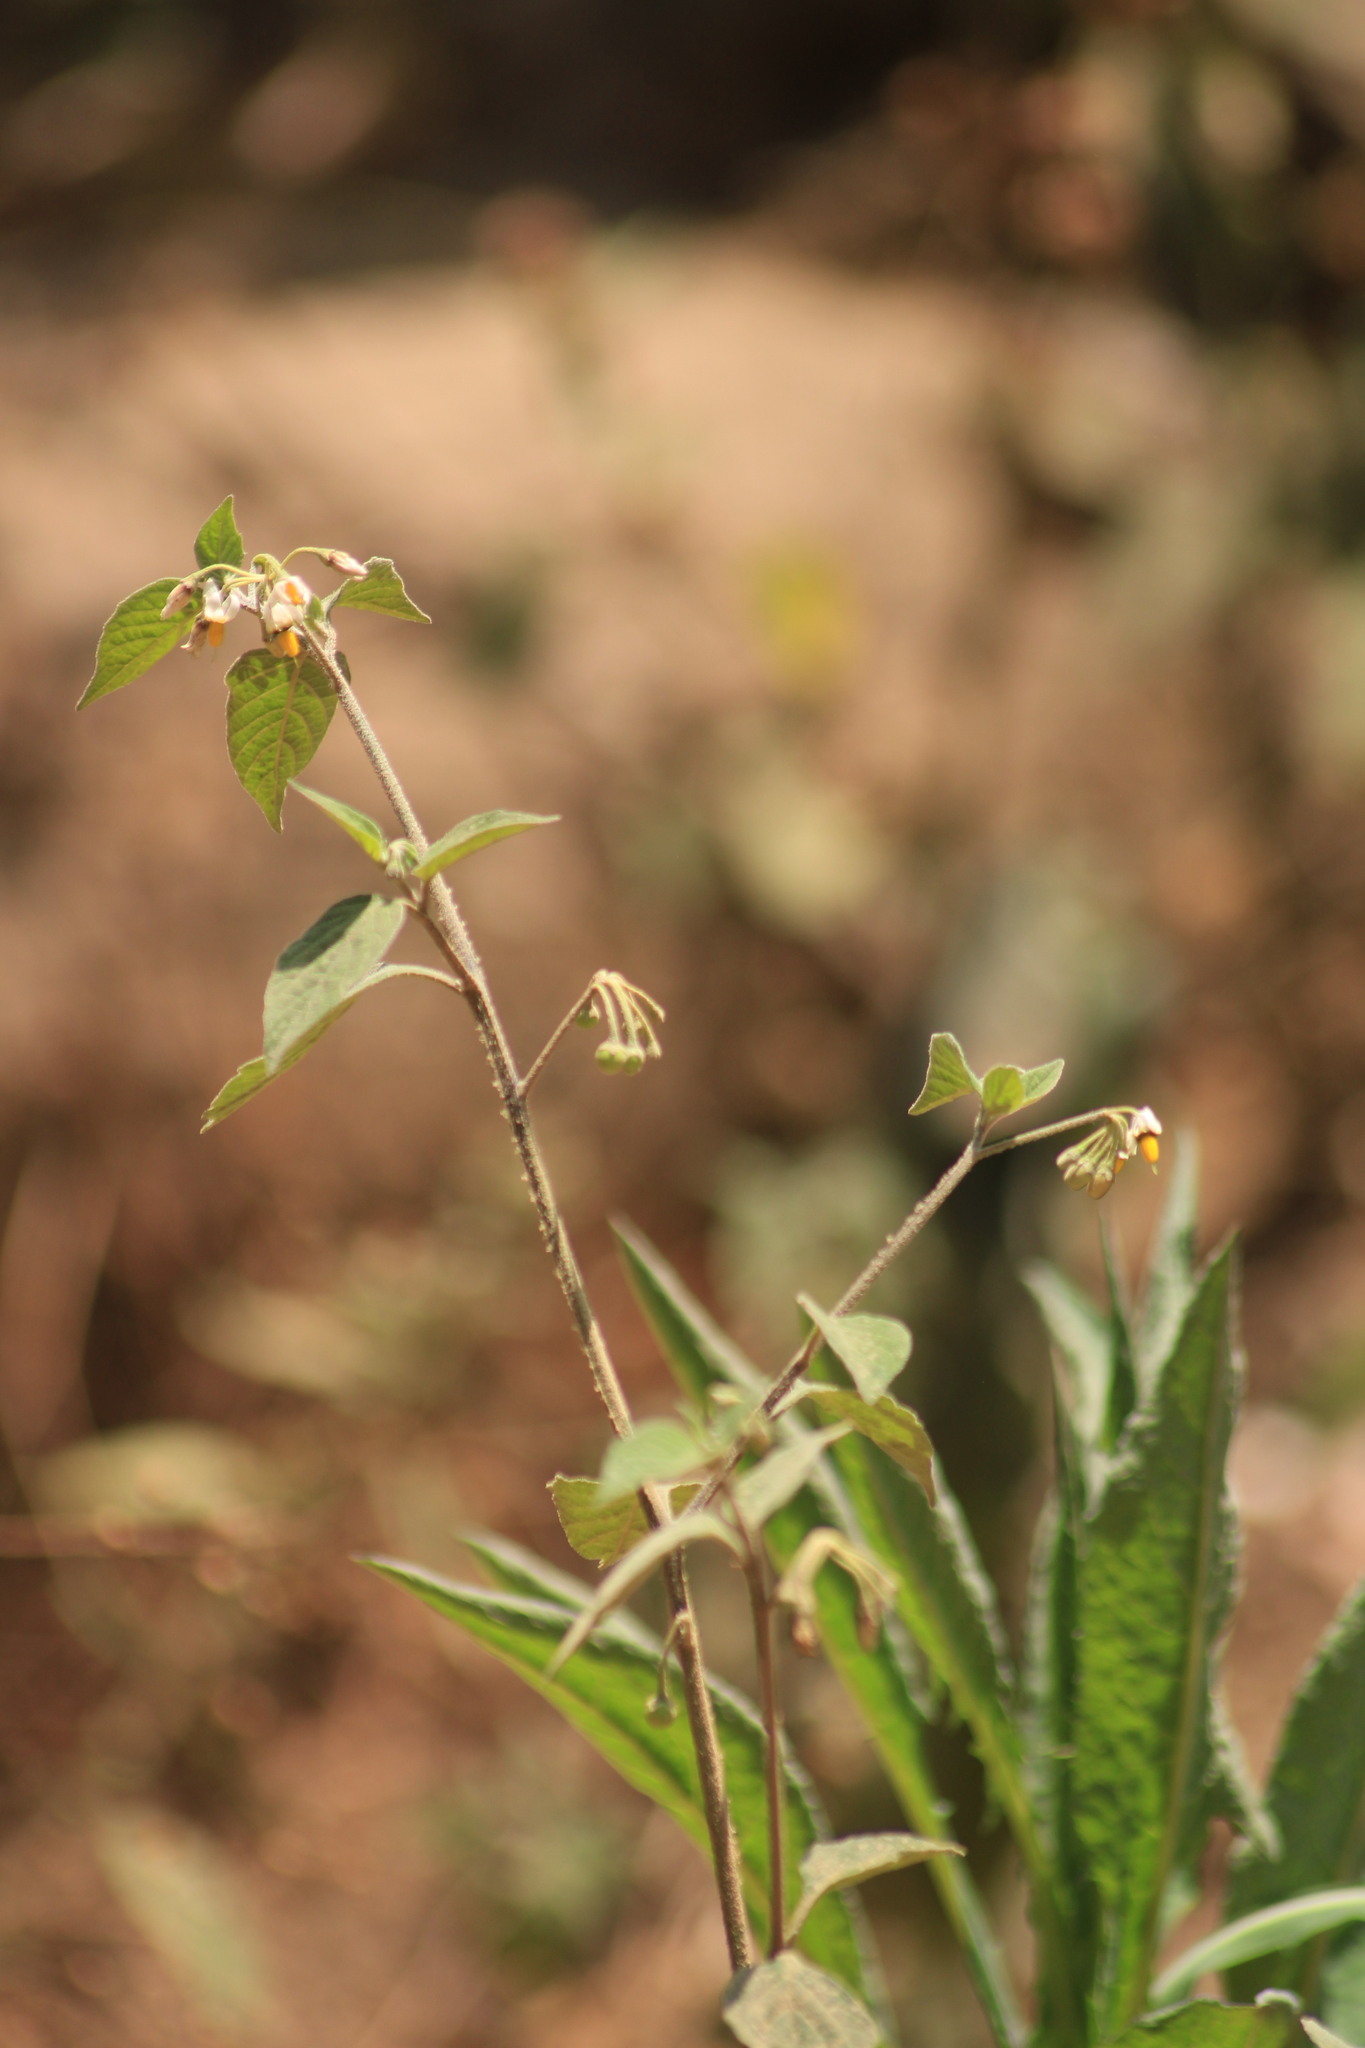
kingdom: Plantae
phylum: Tracheophyta
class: Magnoliopsida
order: Solanales
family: Solanaceae
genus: Solanum
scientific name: Solanum douglasii
